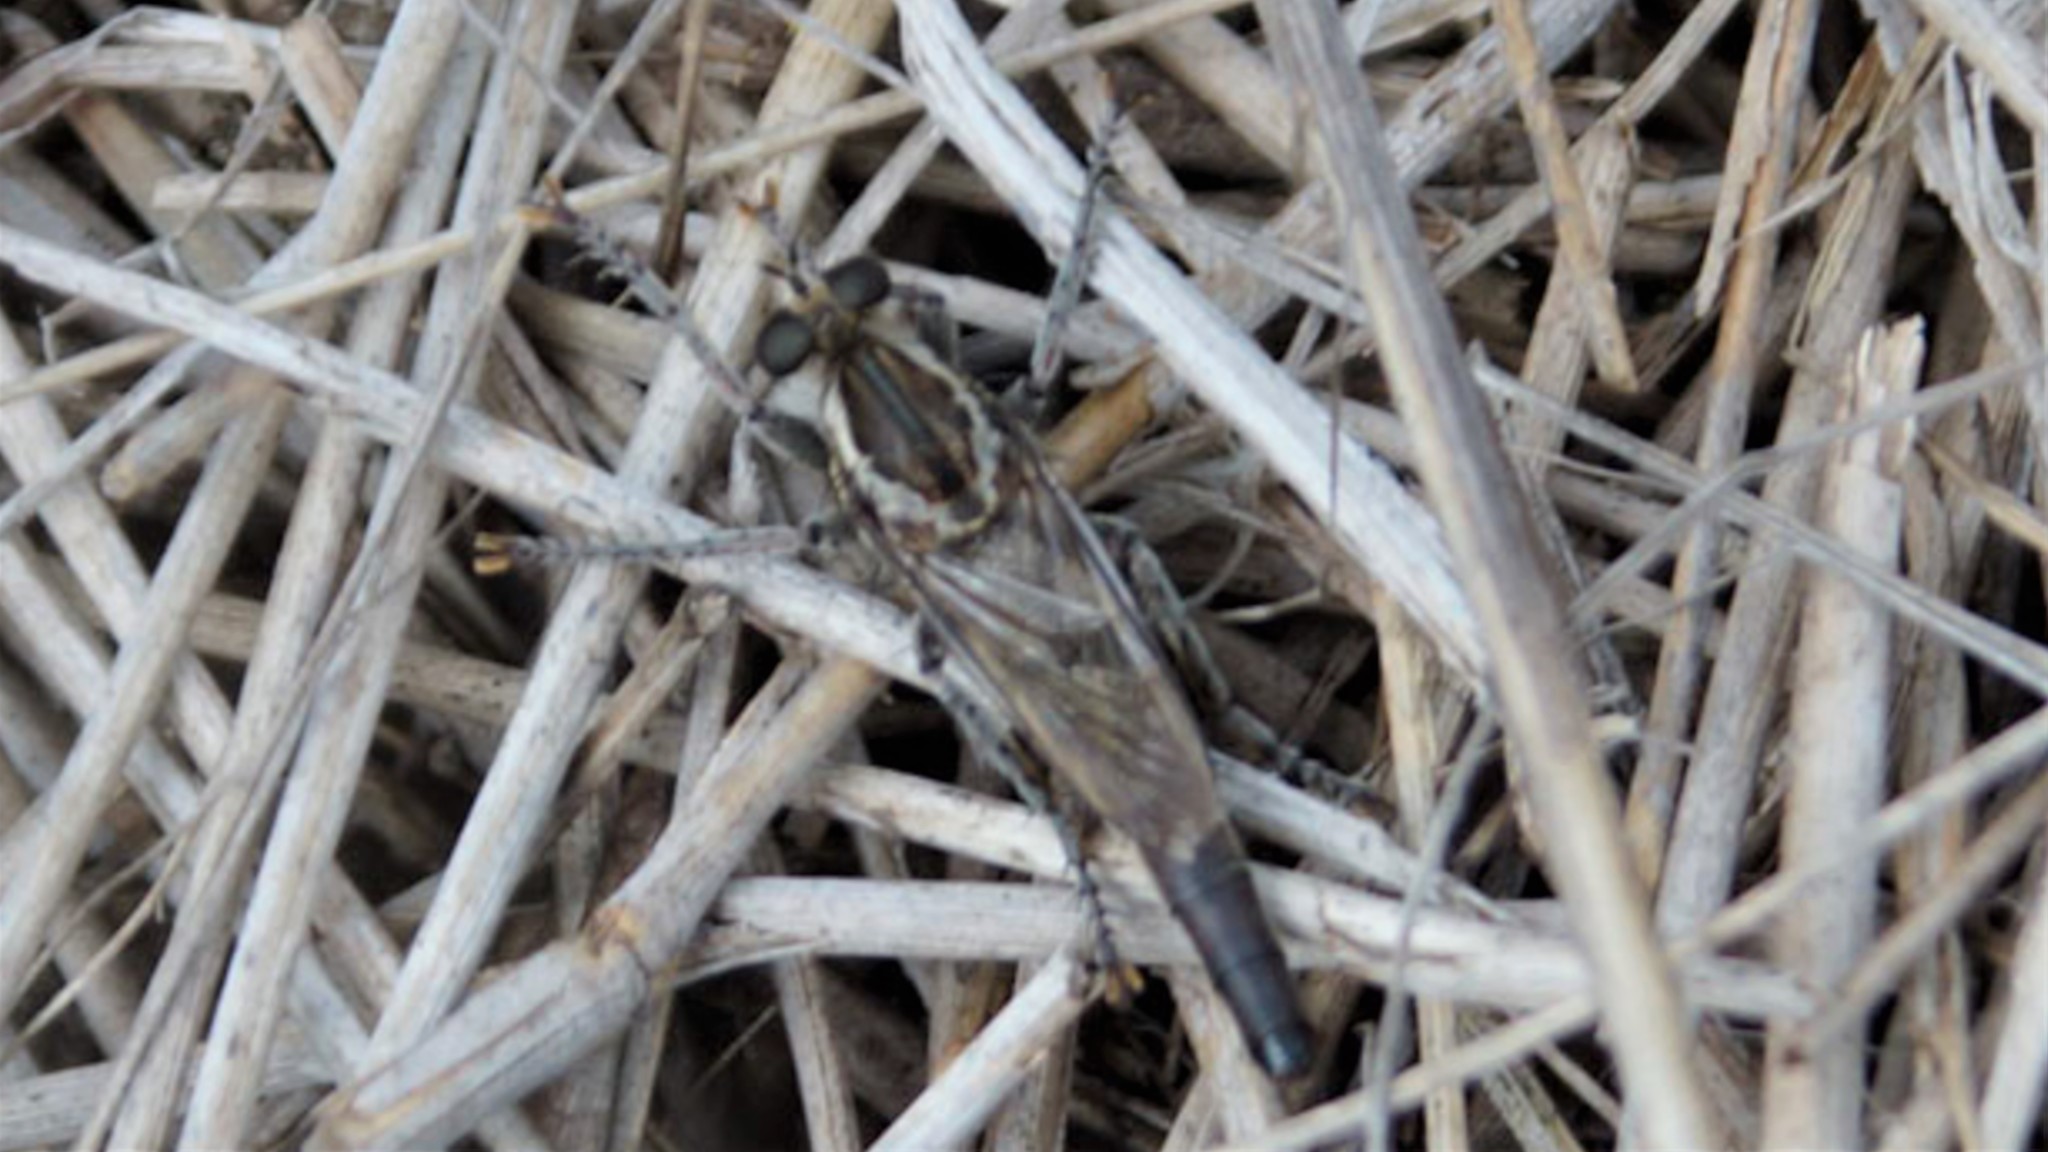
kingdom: Animalia
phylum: Arthropoda
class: Insecta
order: Diptera
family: Asilidae
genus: Bathypogon
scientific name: Bathypogon
